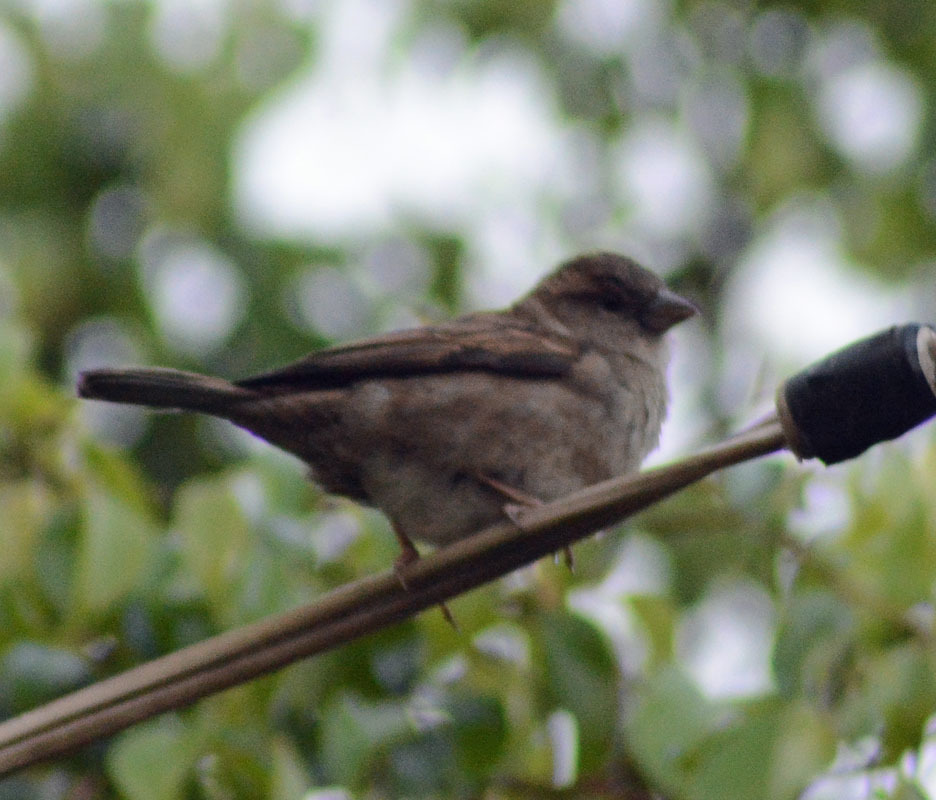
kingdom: Animalia
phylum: Chordata
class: Aves
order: Passeriformes
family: Passeridae
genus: Passer
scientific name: Passer domesticus
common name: House sparrow
